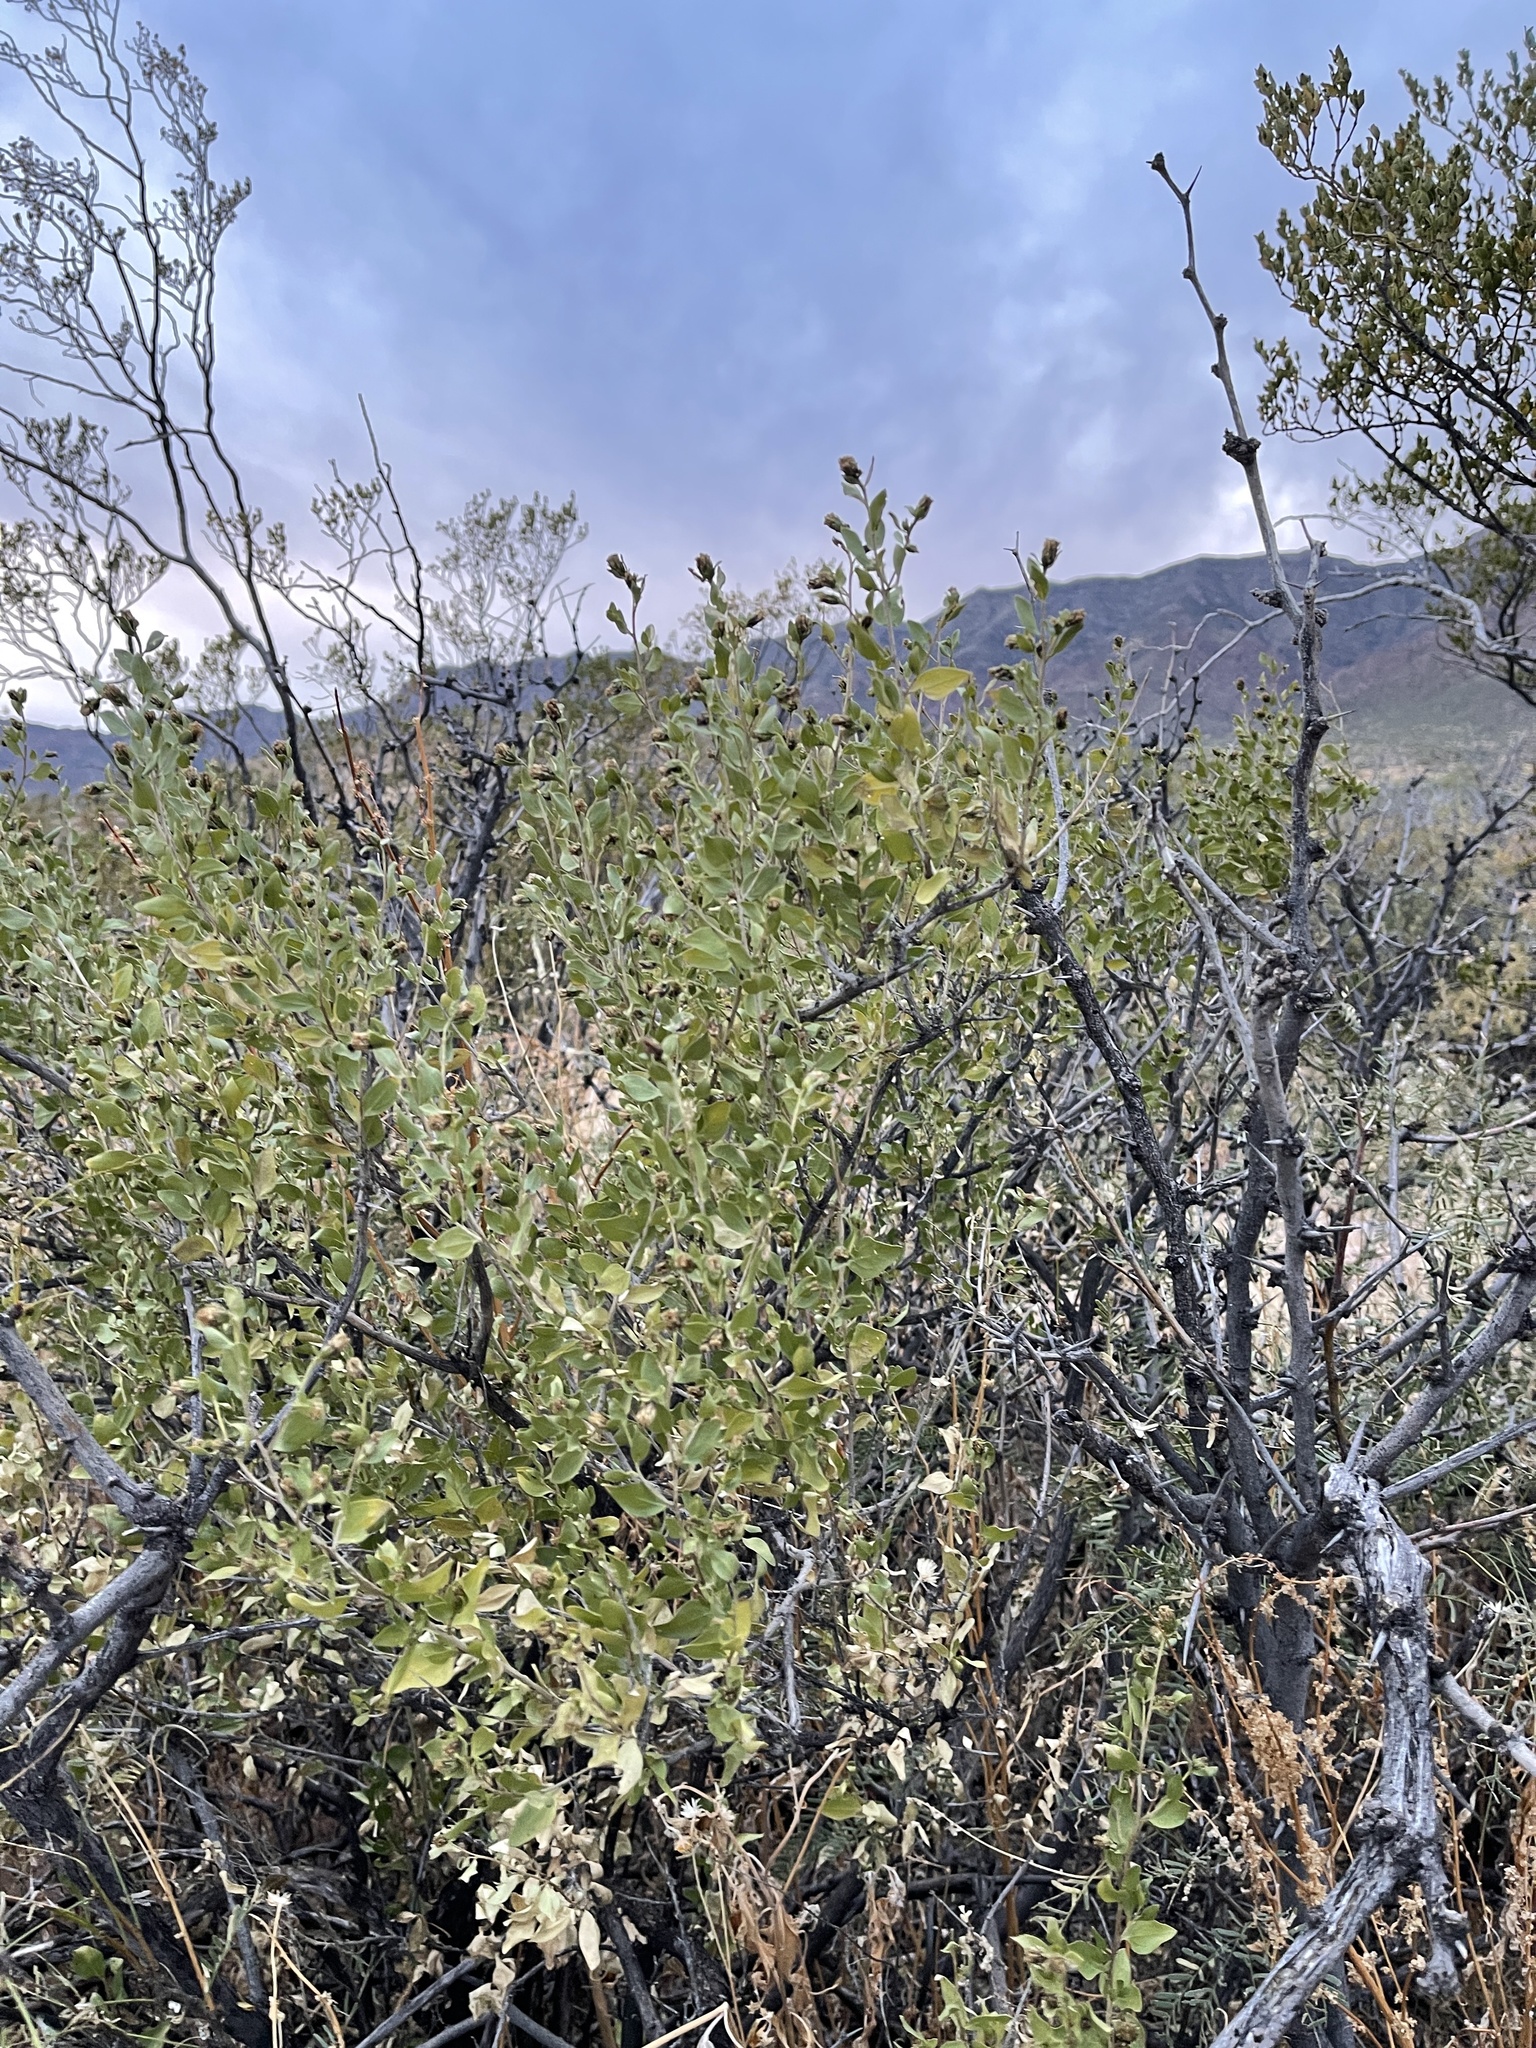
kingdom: Plantae
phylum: Tracheophyta
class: Magnoliopsida
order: Asterales
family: Asteraceae
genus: Flourensia
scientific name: Flourensia cernua
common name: Varnishbush
